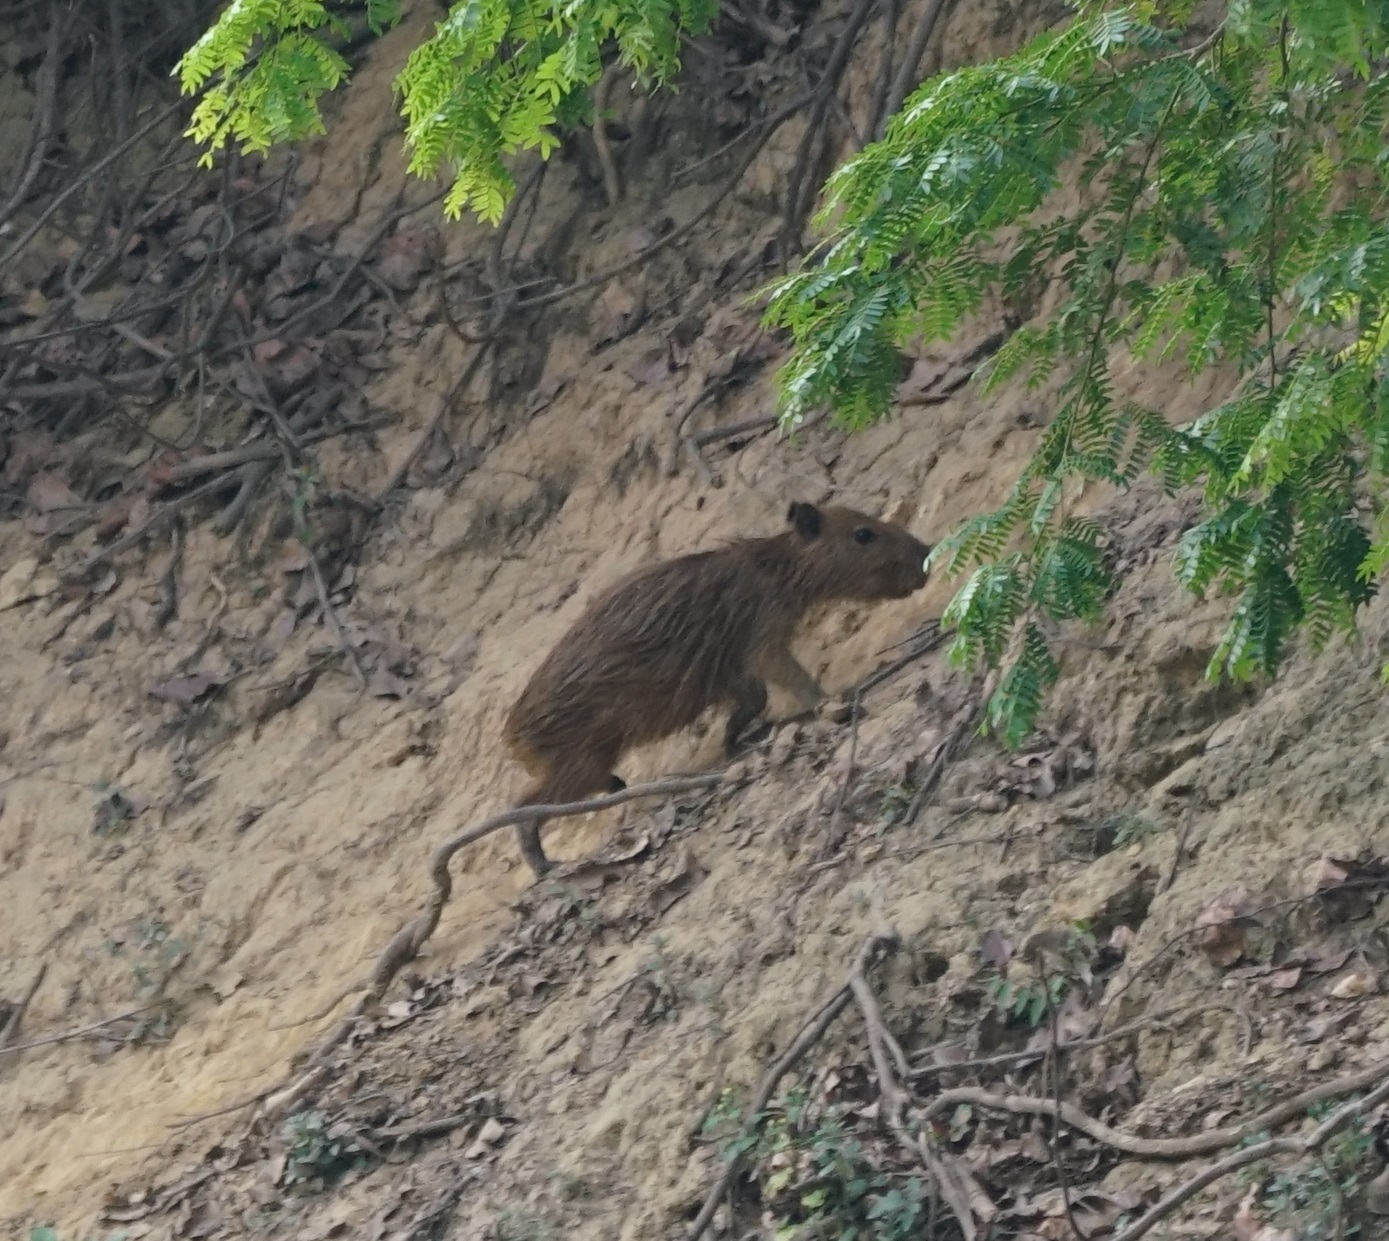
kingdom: Animalia
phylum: Chordata
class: Mammalia
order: Rodentia
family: Caviidae
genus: Hydrochoerus
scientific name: Hydrochoerus hydrochaeris
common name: Capybara
